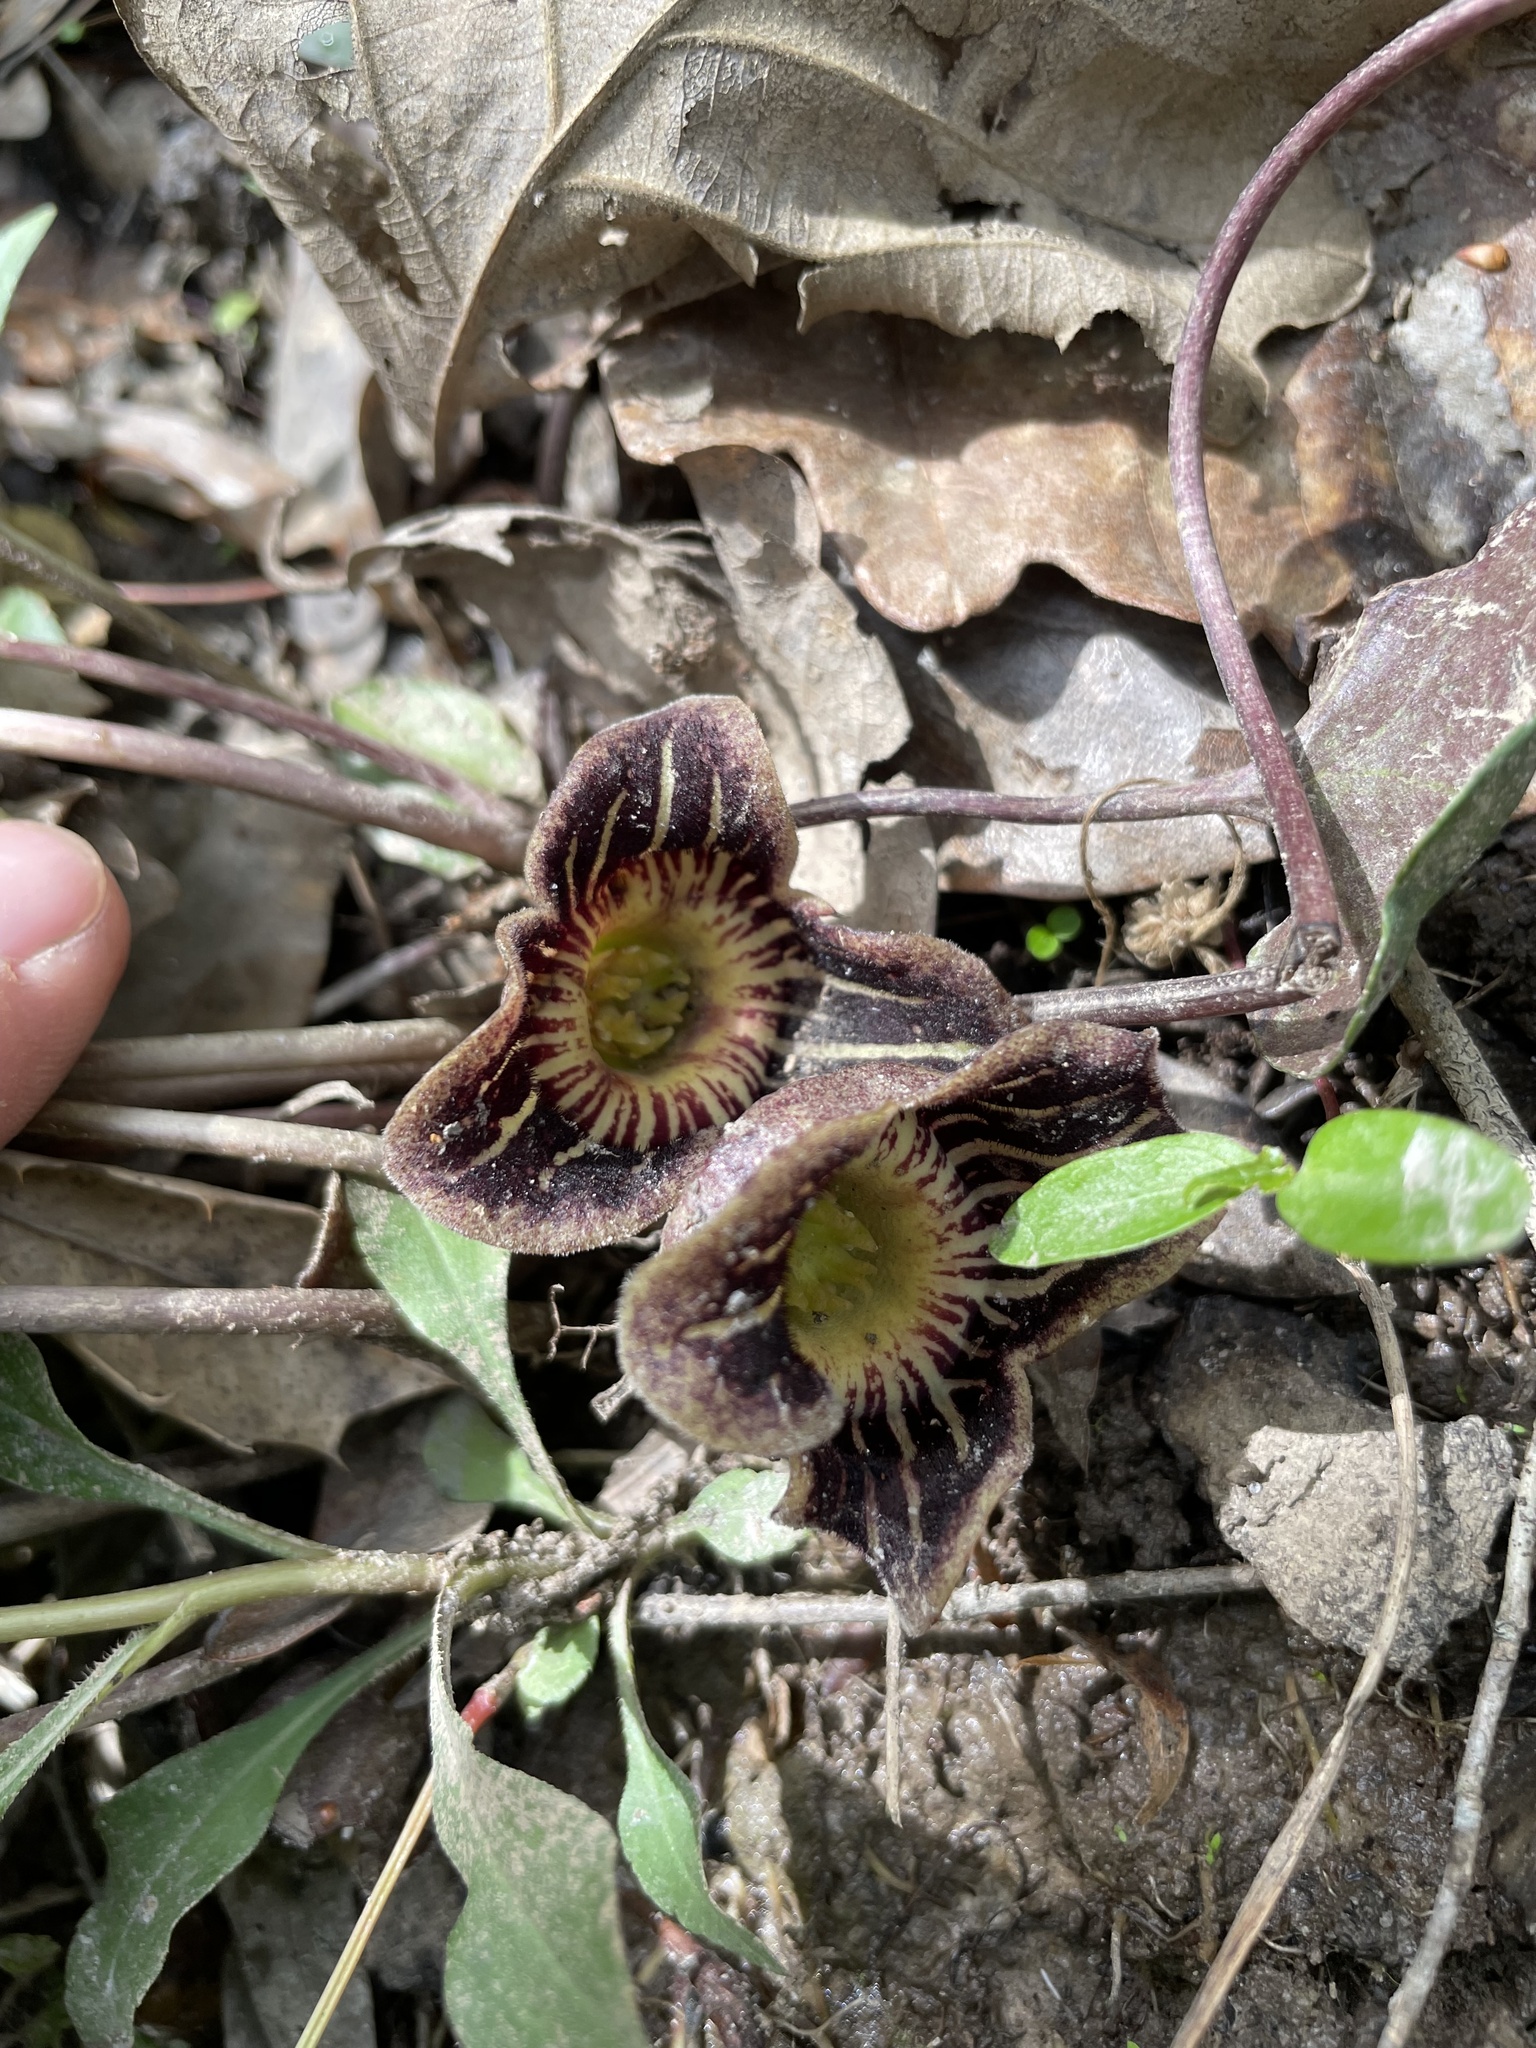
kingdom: Plantae
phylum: Tracheophyta
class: Magnoliopsida
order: Piperales
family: Aristolochiaceae
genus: Hexastylis
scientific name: Hexastylis speciosa
